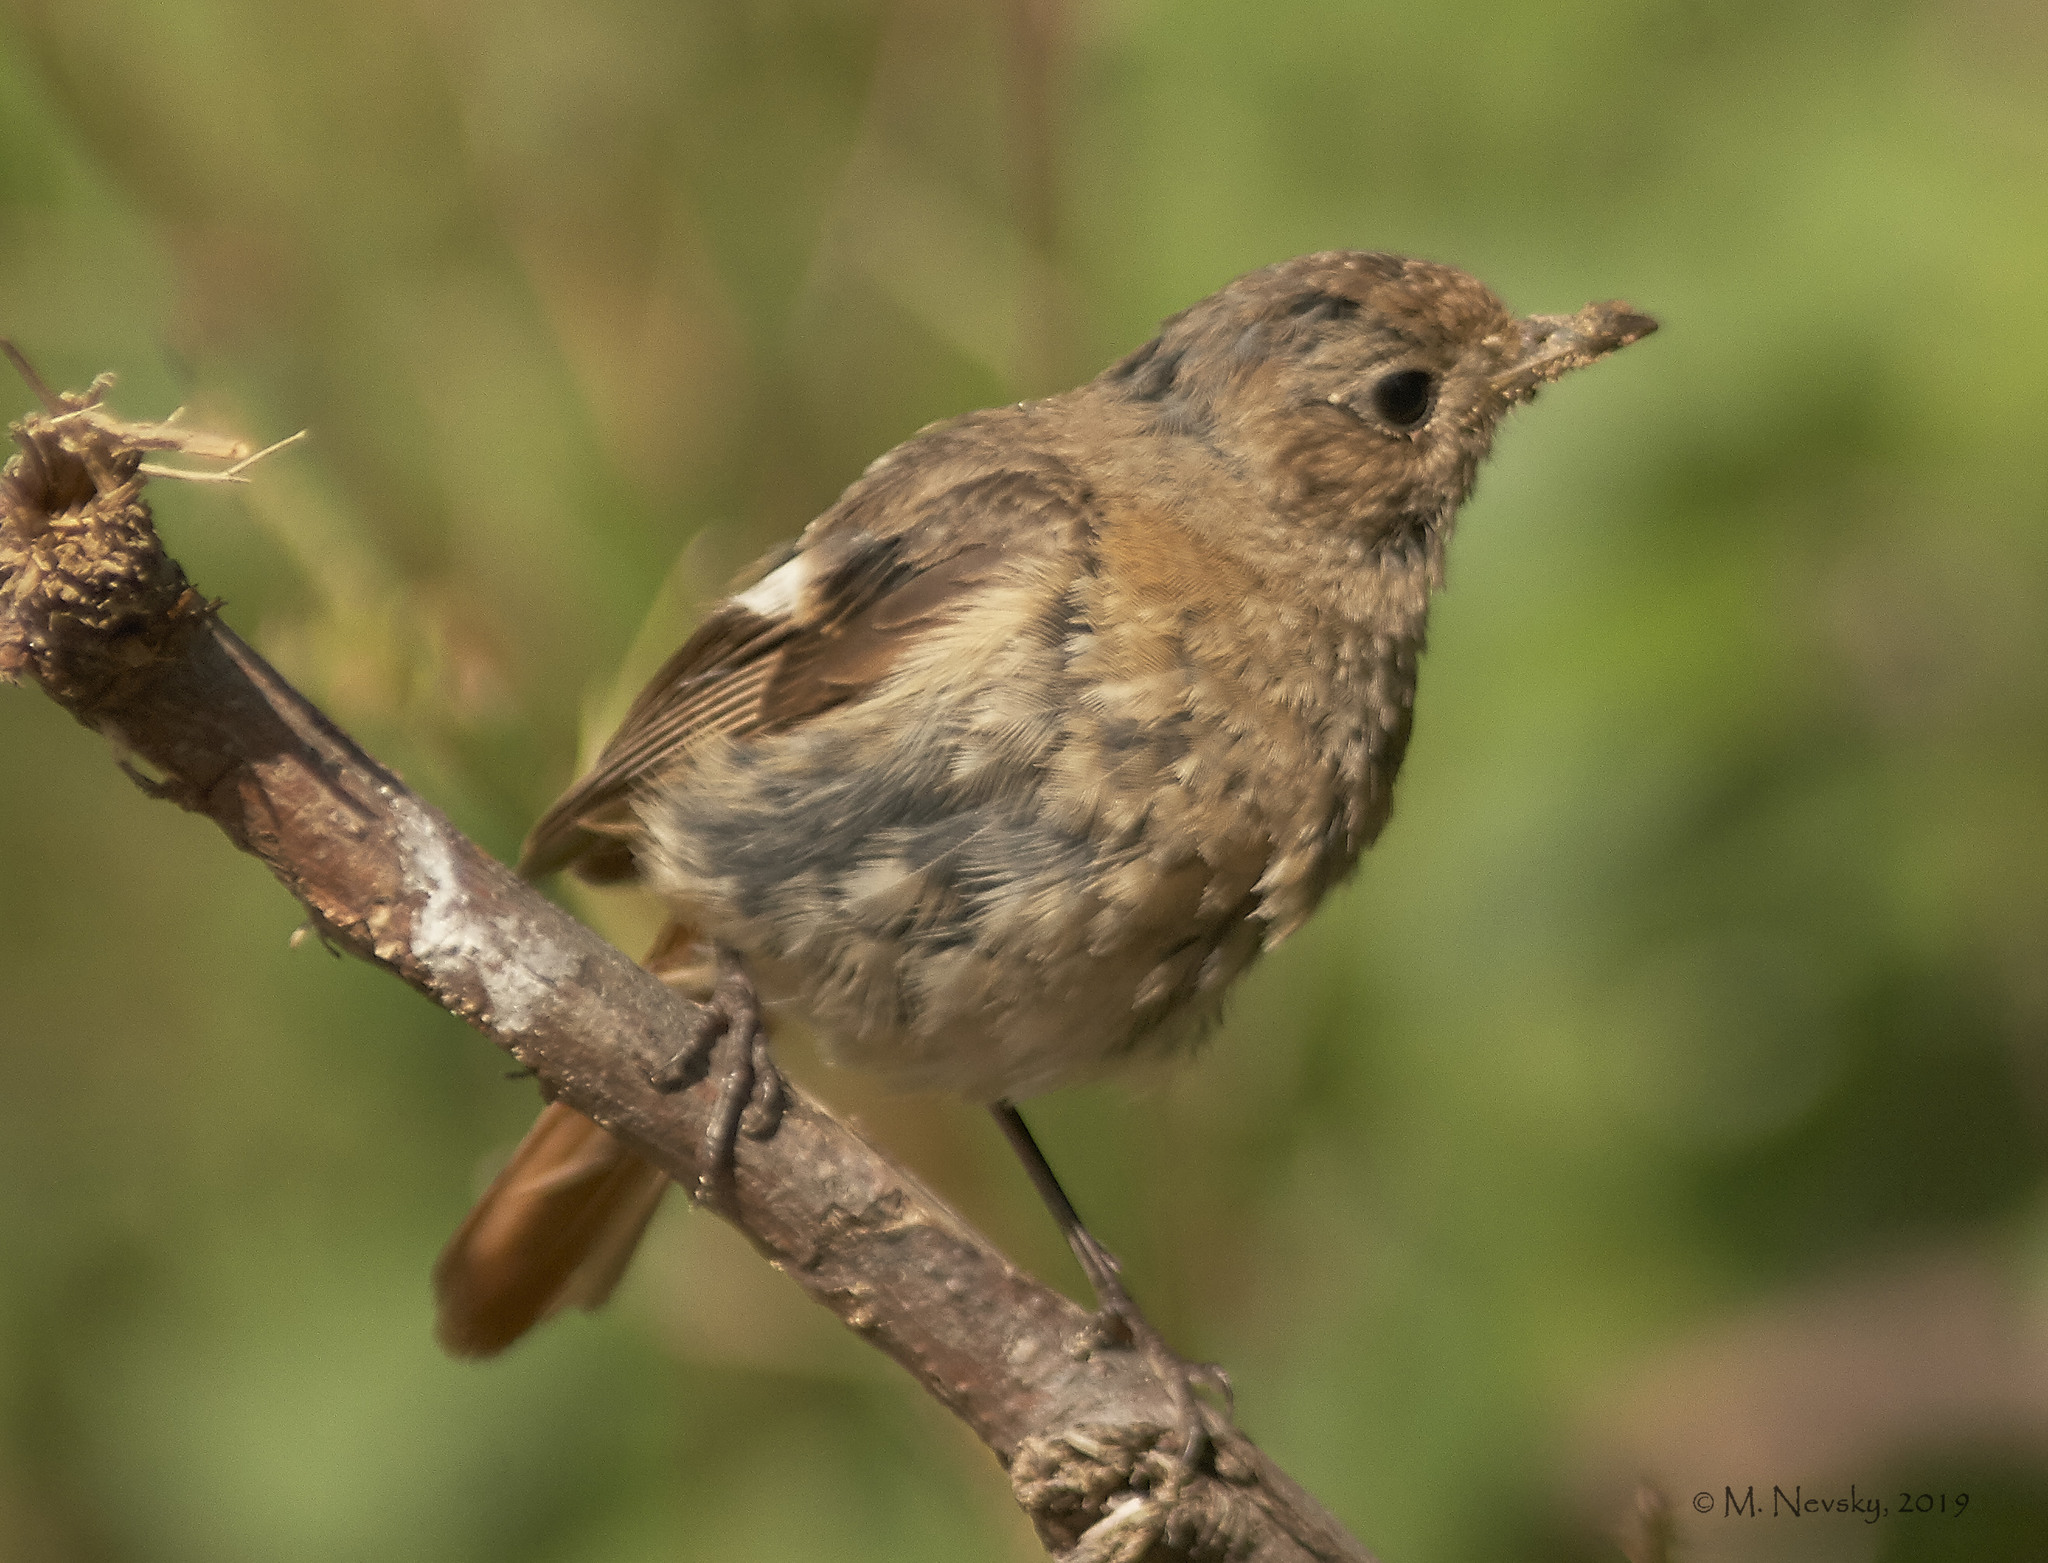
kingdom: Animalia
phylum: Chordata
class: Aves
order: Passeriformes
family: Muscicapidae
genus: Phoenicurus
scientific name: Phoenicurus auroreus
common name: Daurian redstart
